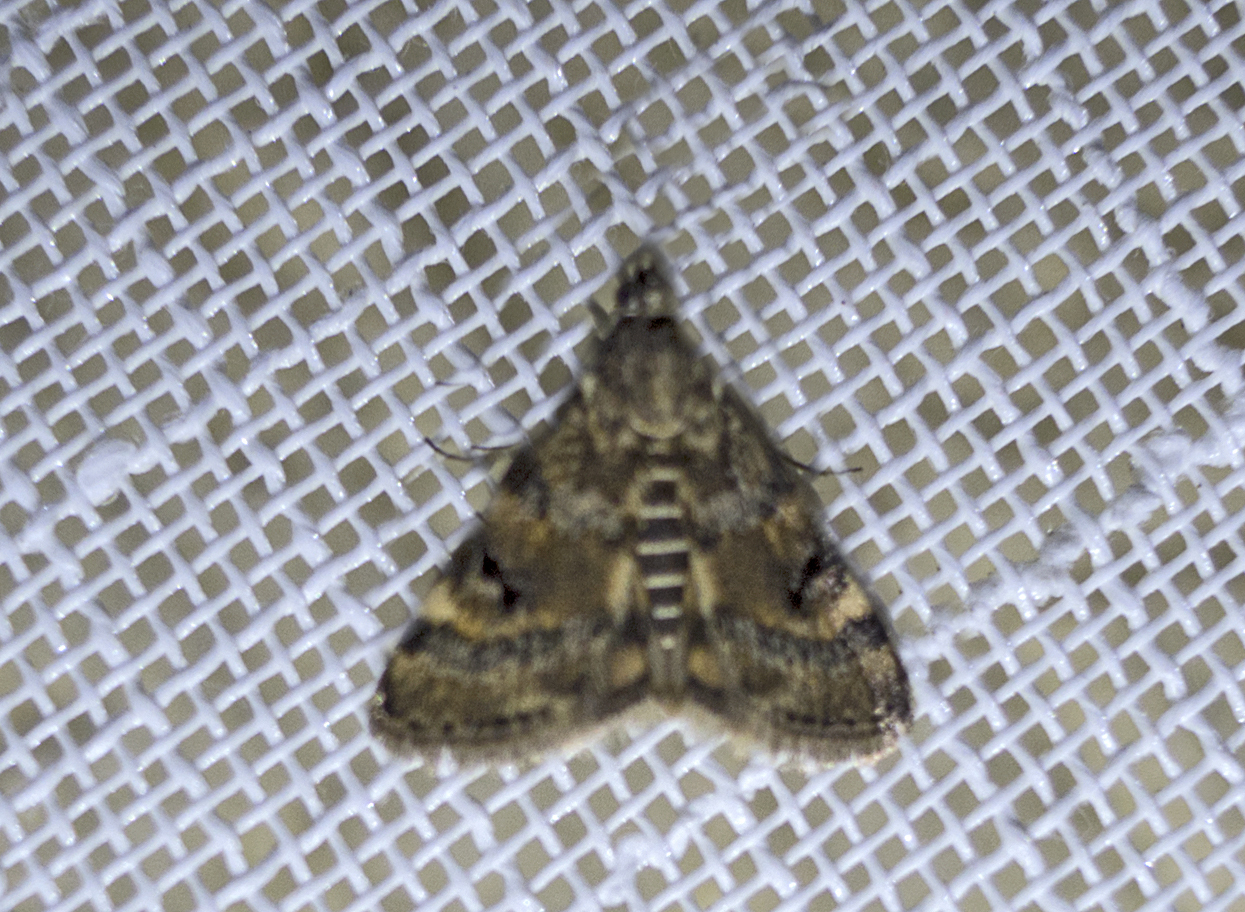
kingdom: Animalia
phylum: Arthropoda
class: Insecta
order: Lepidoptera
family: Crambidae
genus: Noctuelia
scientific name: Noctuelia Aporodes floralis
